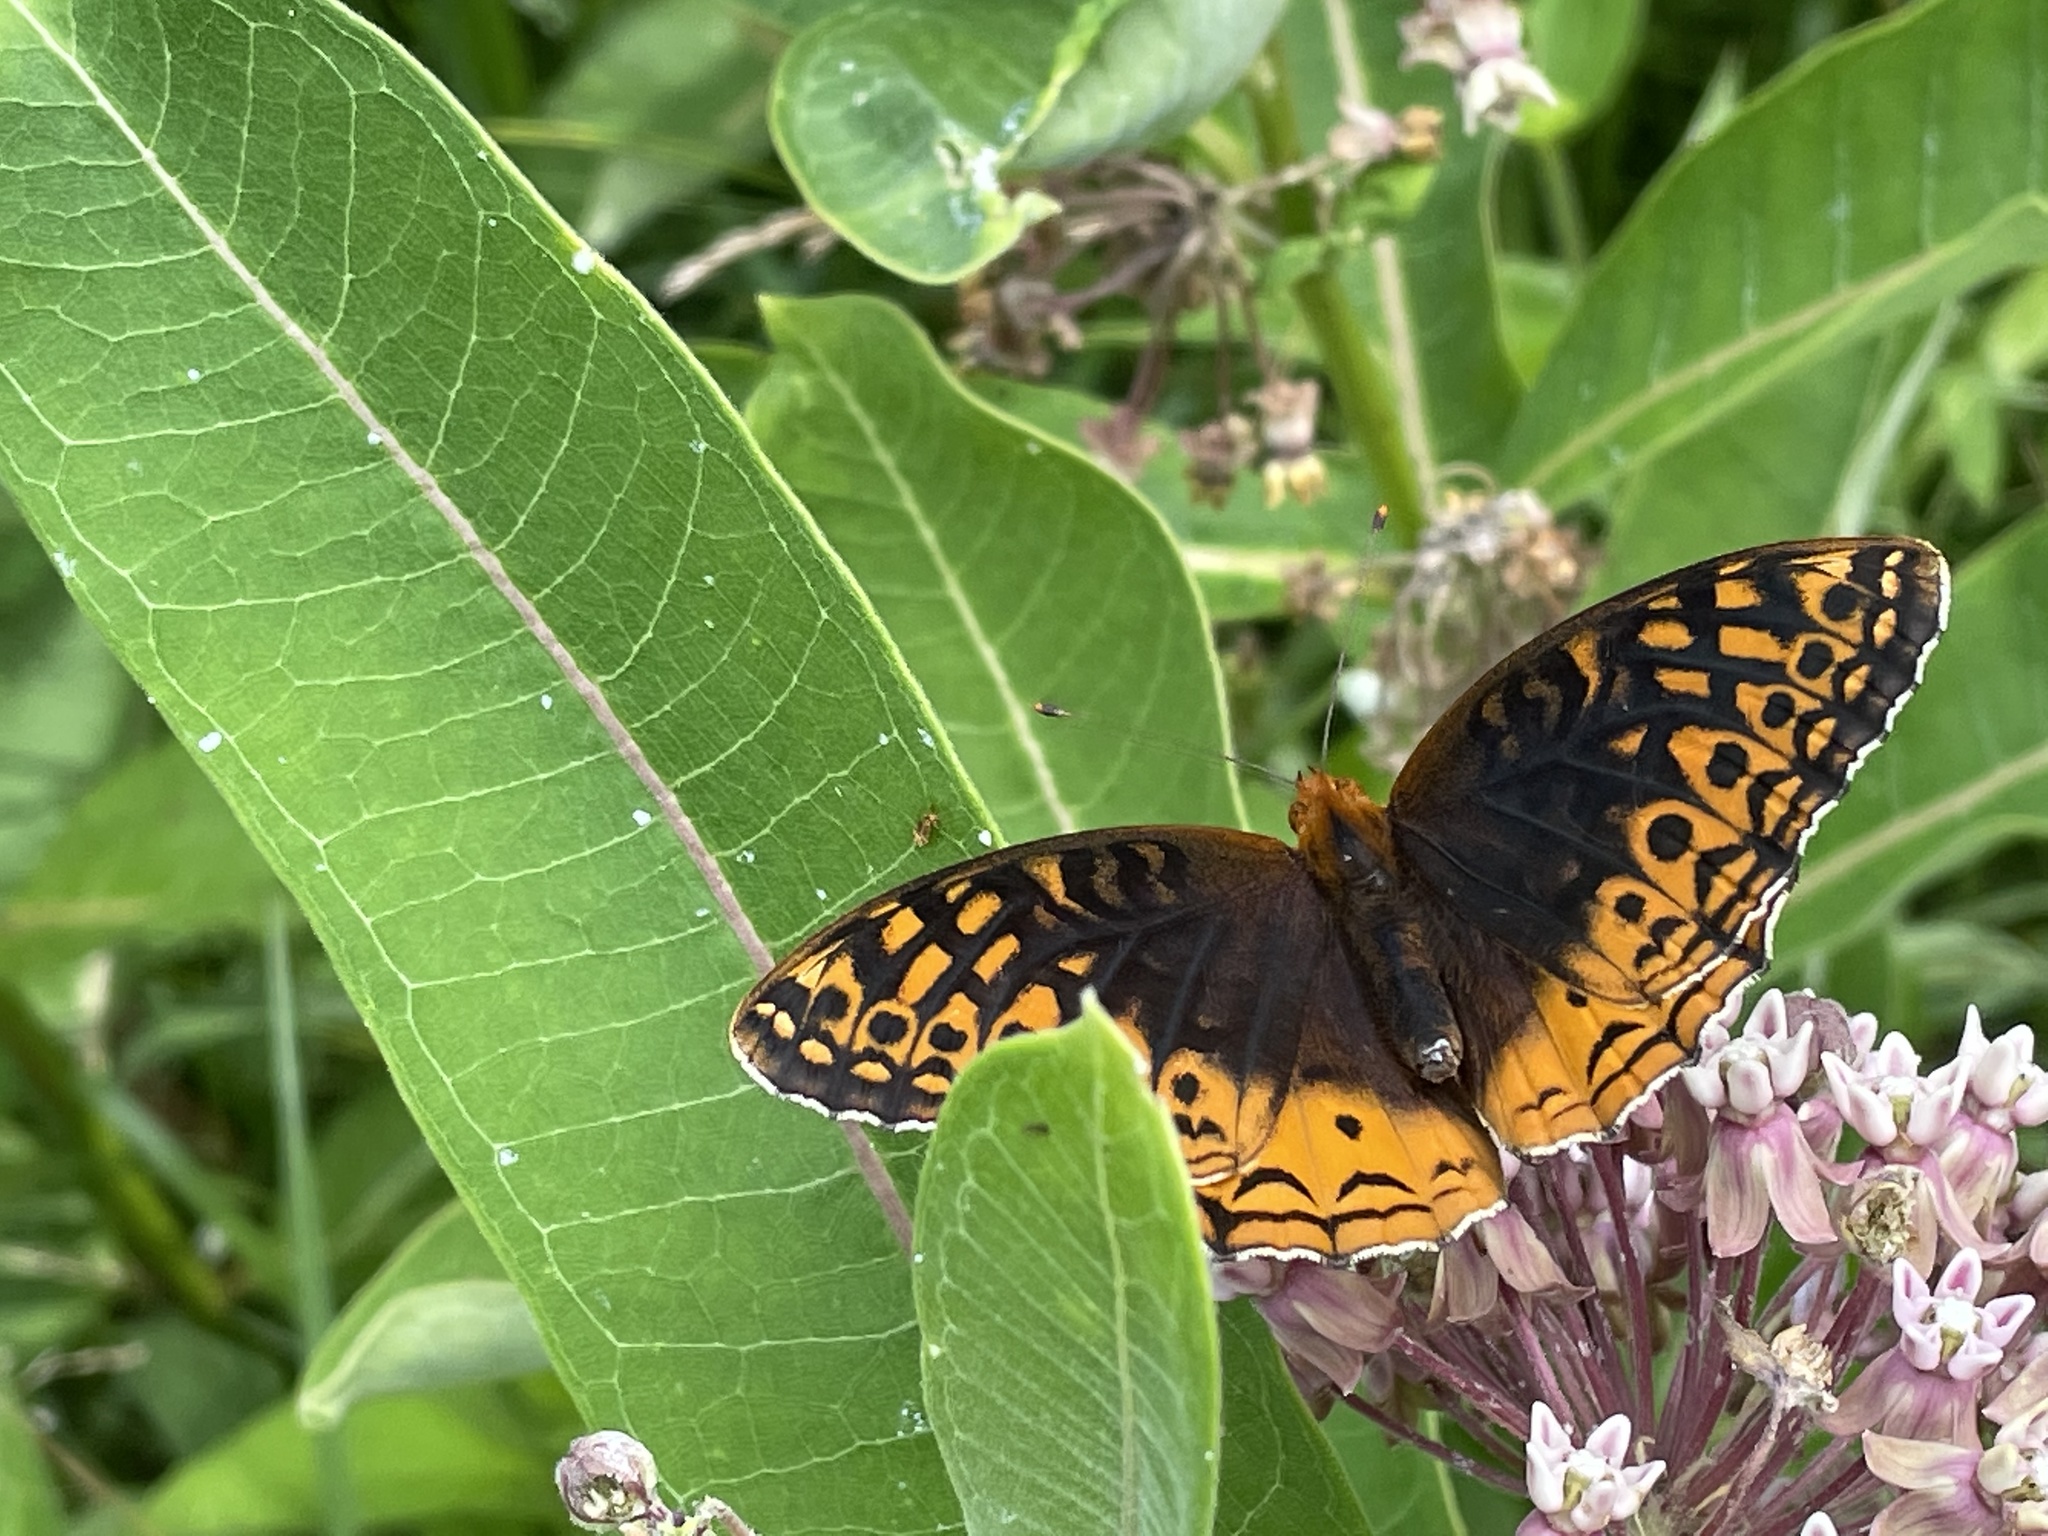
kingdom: Animalia
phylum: Arthropoda
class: Insecta
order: Lepidoptera
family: Nymphalidae
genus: Speyeria
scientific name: Speyeria cybele
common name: Great spangled fritillary
